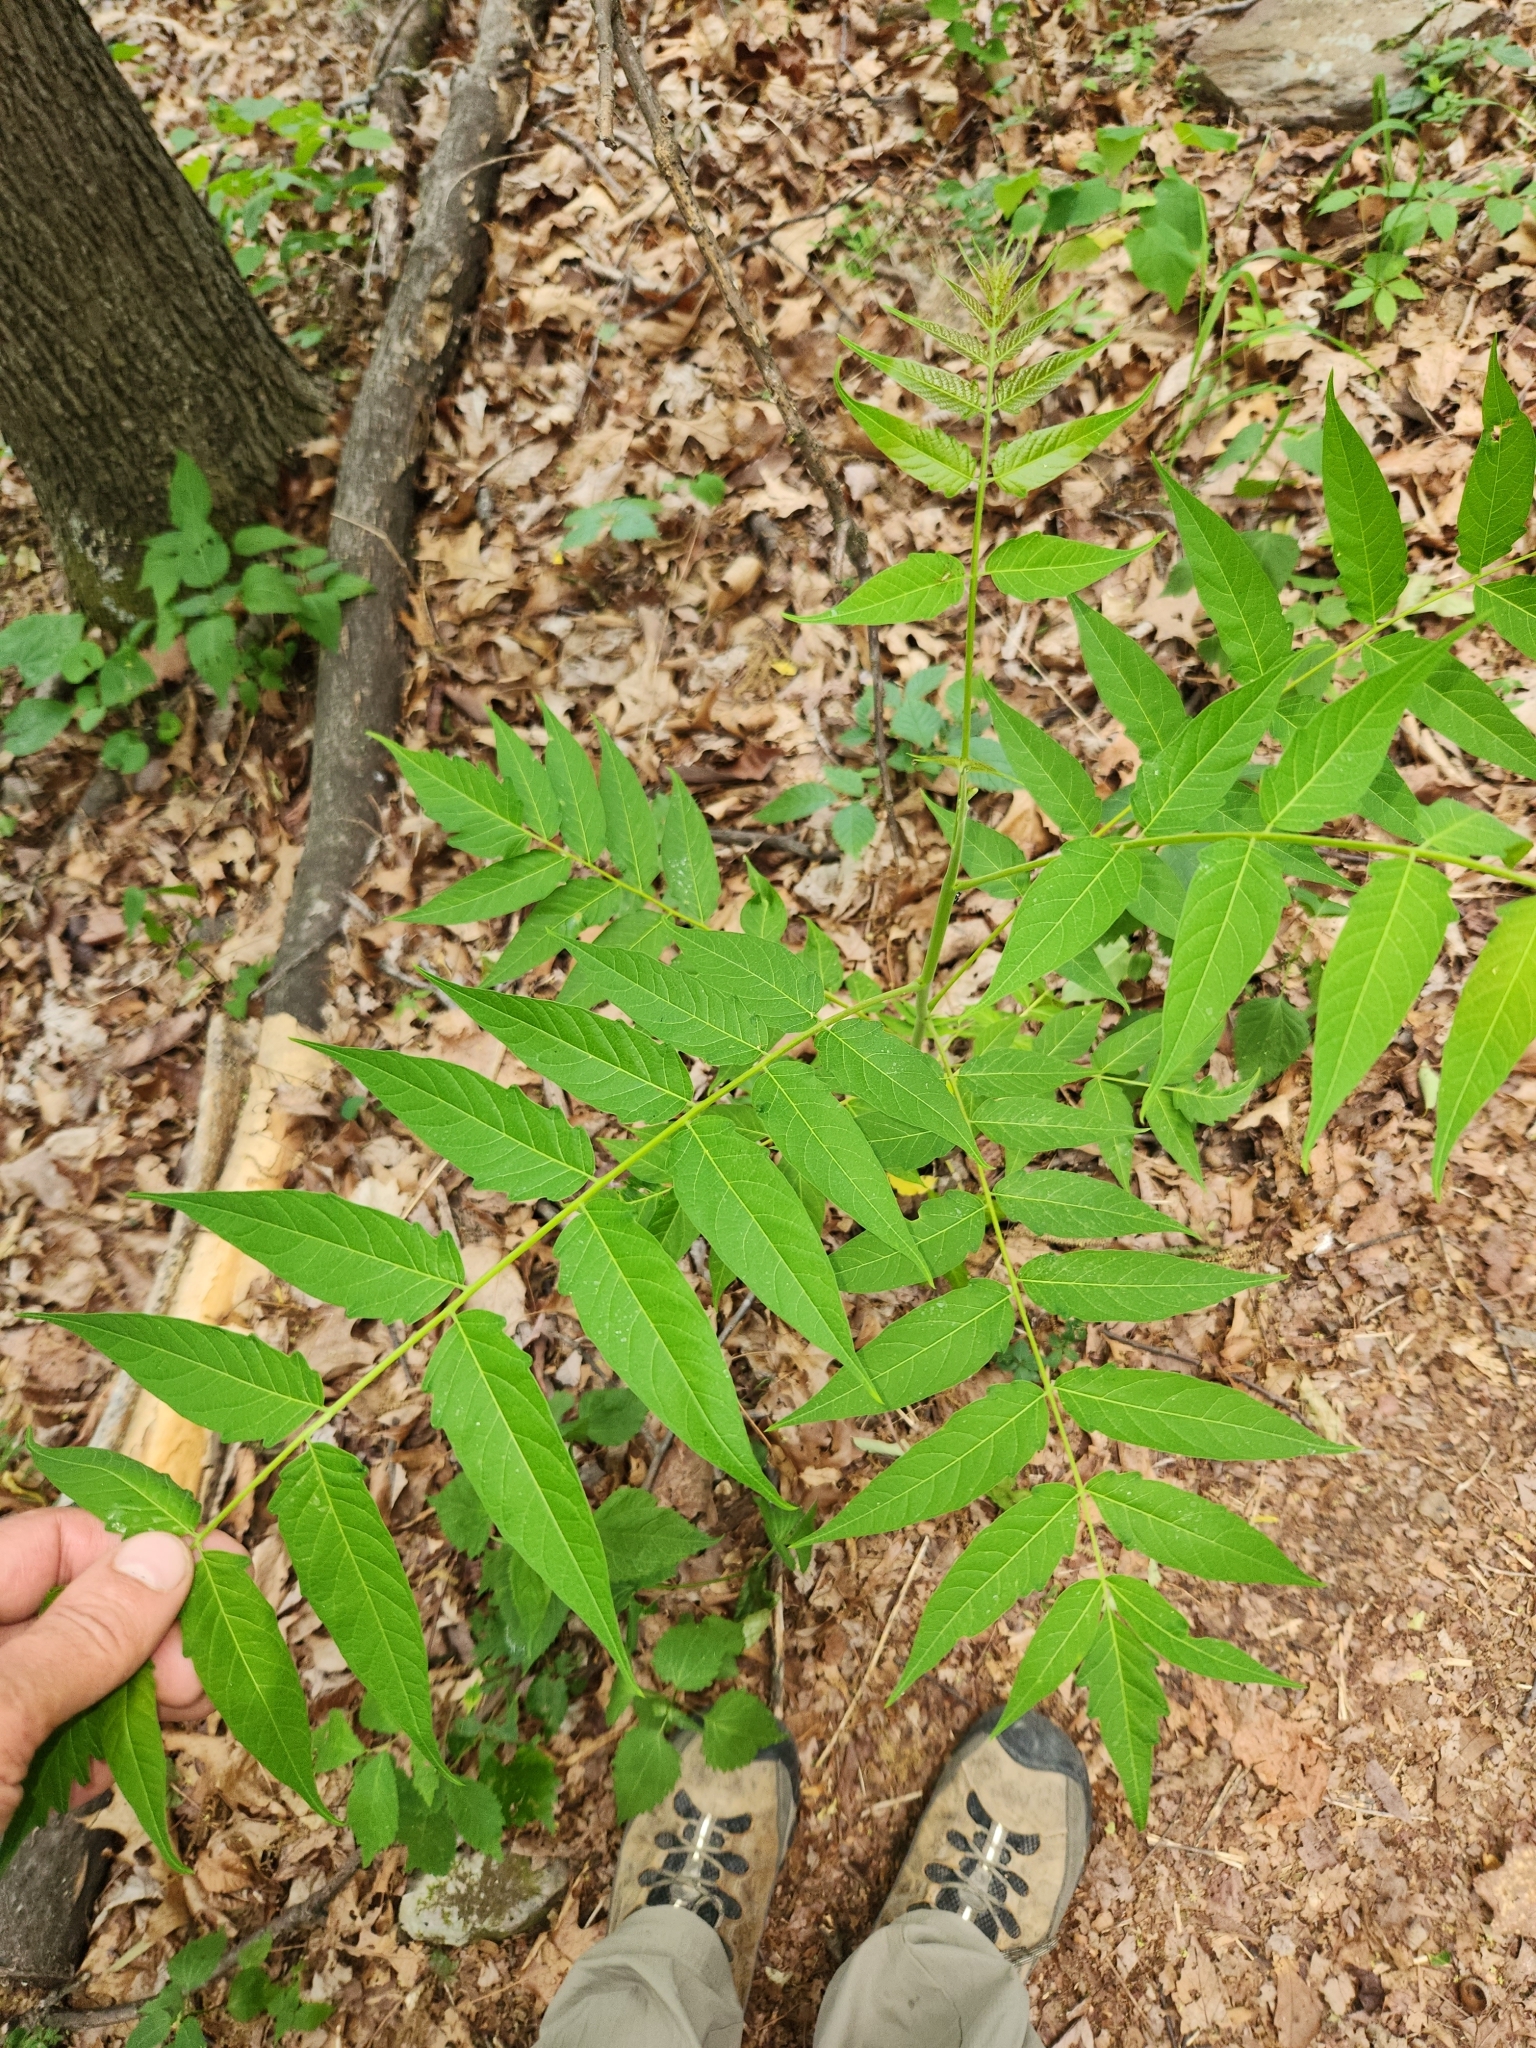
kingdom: Plantae
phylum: Tracheophyta
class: Magnoliopsida
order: Sapindales
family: Simaroubaceae
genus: Ailanthus
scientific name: Ailanthus altissima
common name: Tree-of-heaven
